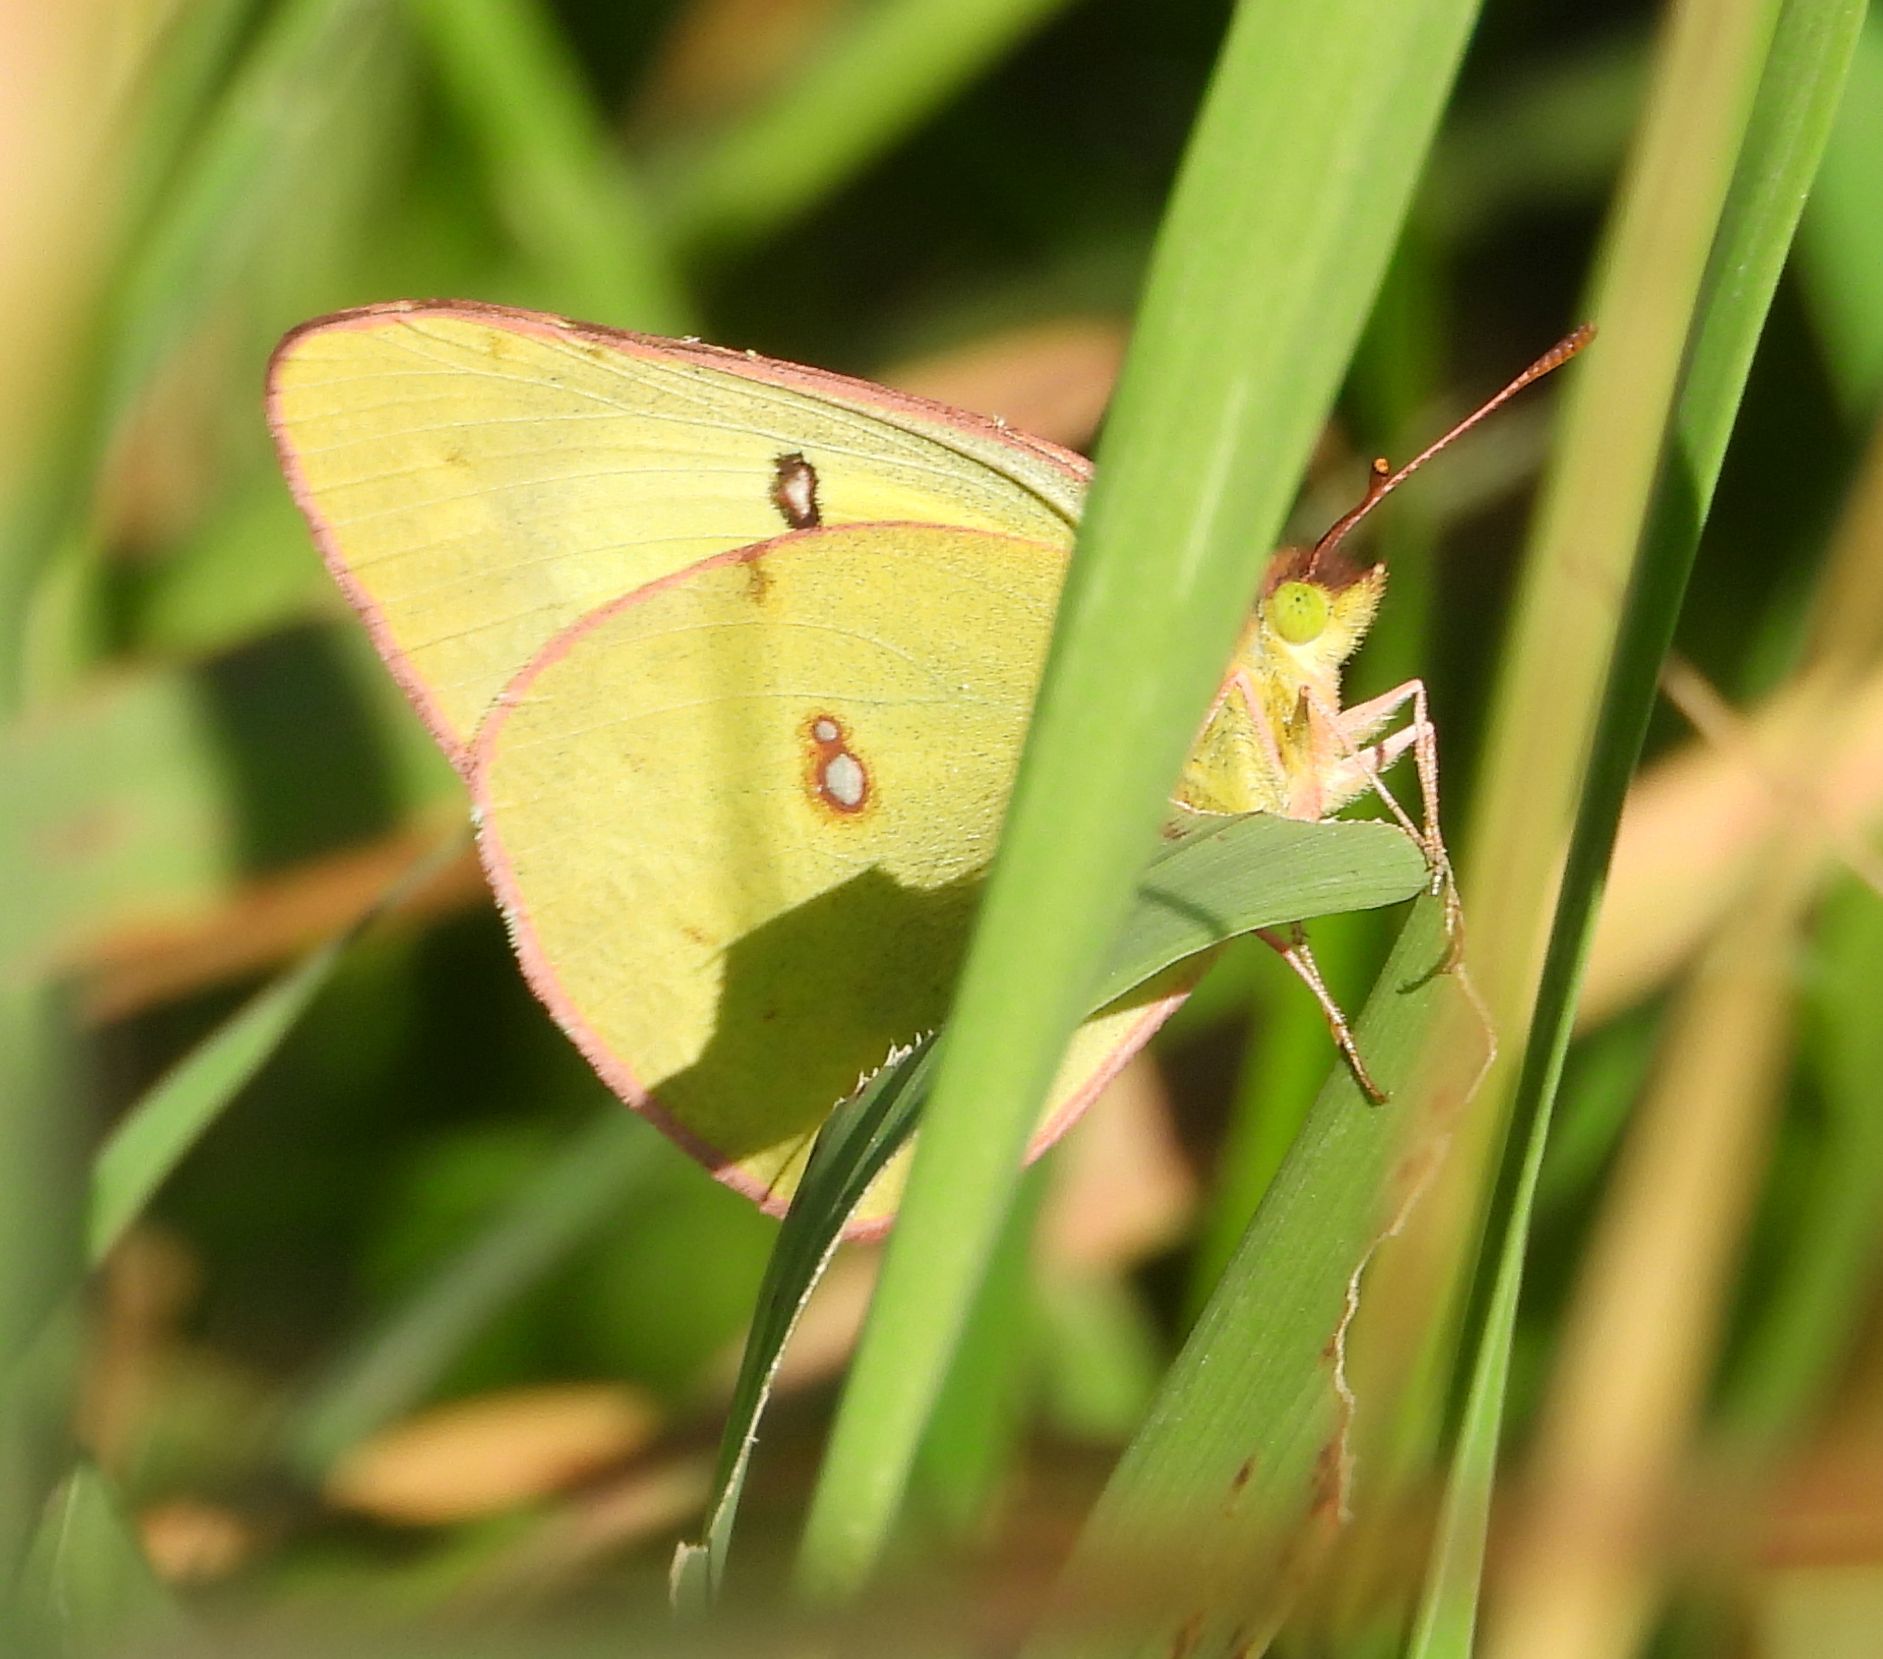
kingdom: Animalia
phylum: Arthropoda
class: Insecta
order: Lepidoptera
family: Pieridae
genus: Colias
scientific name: Colias philodice
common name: Clouded sulphur
